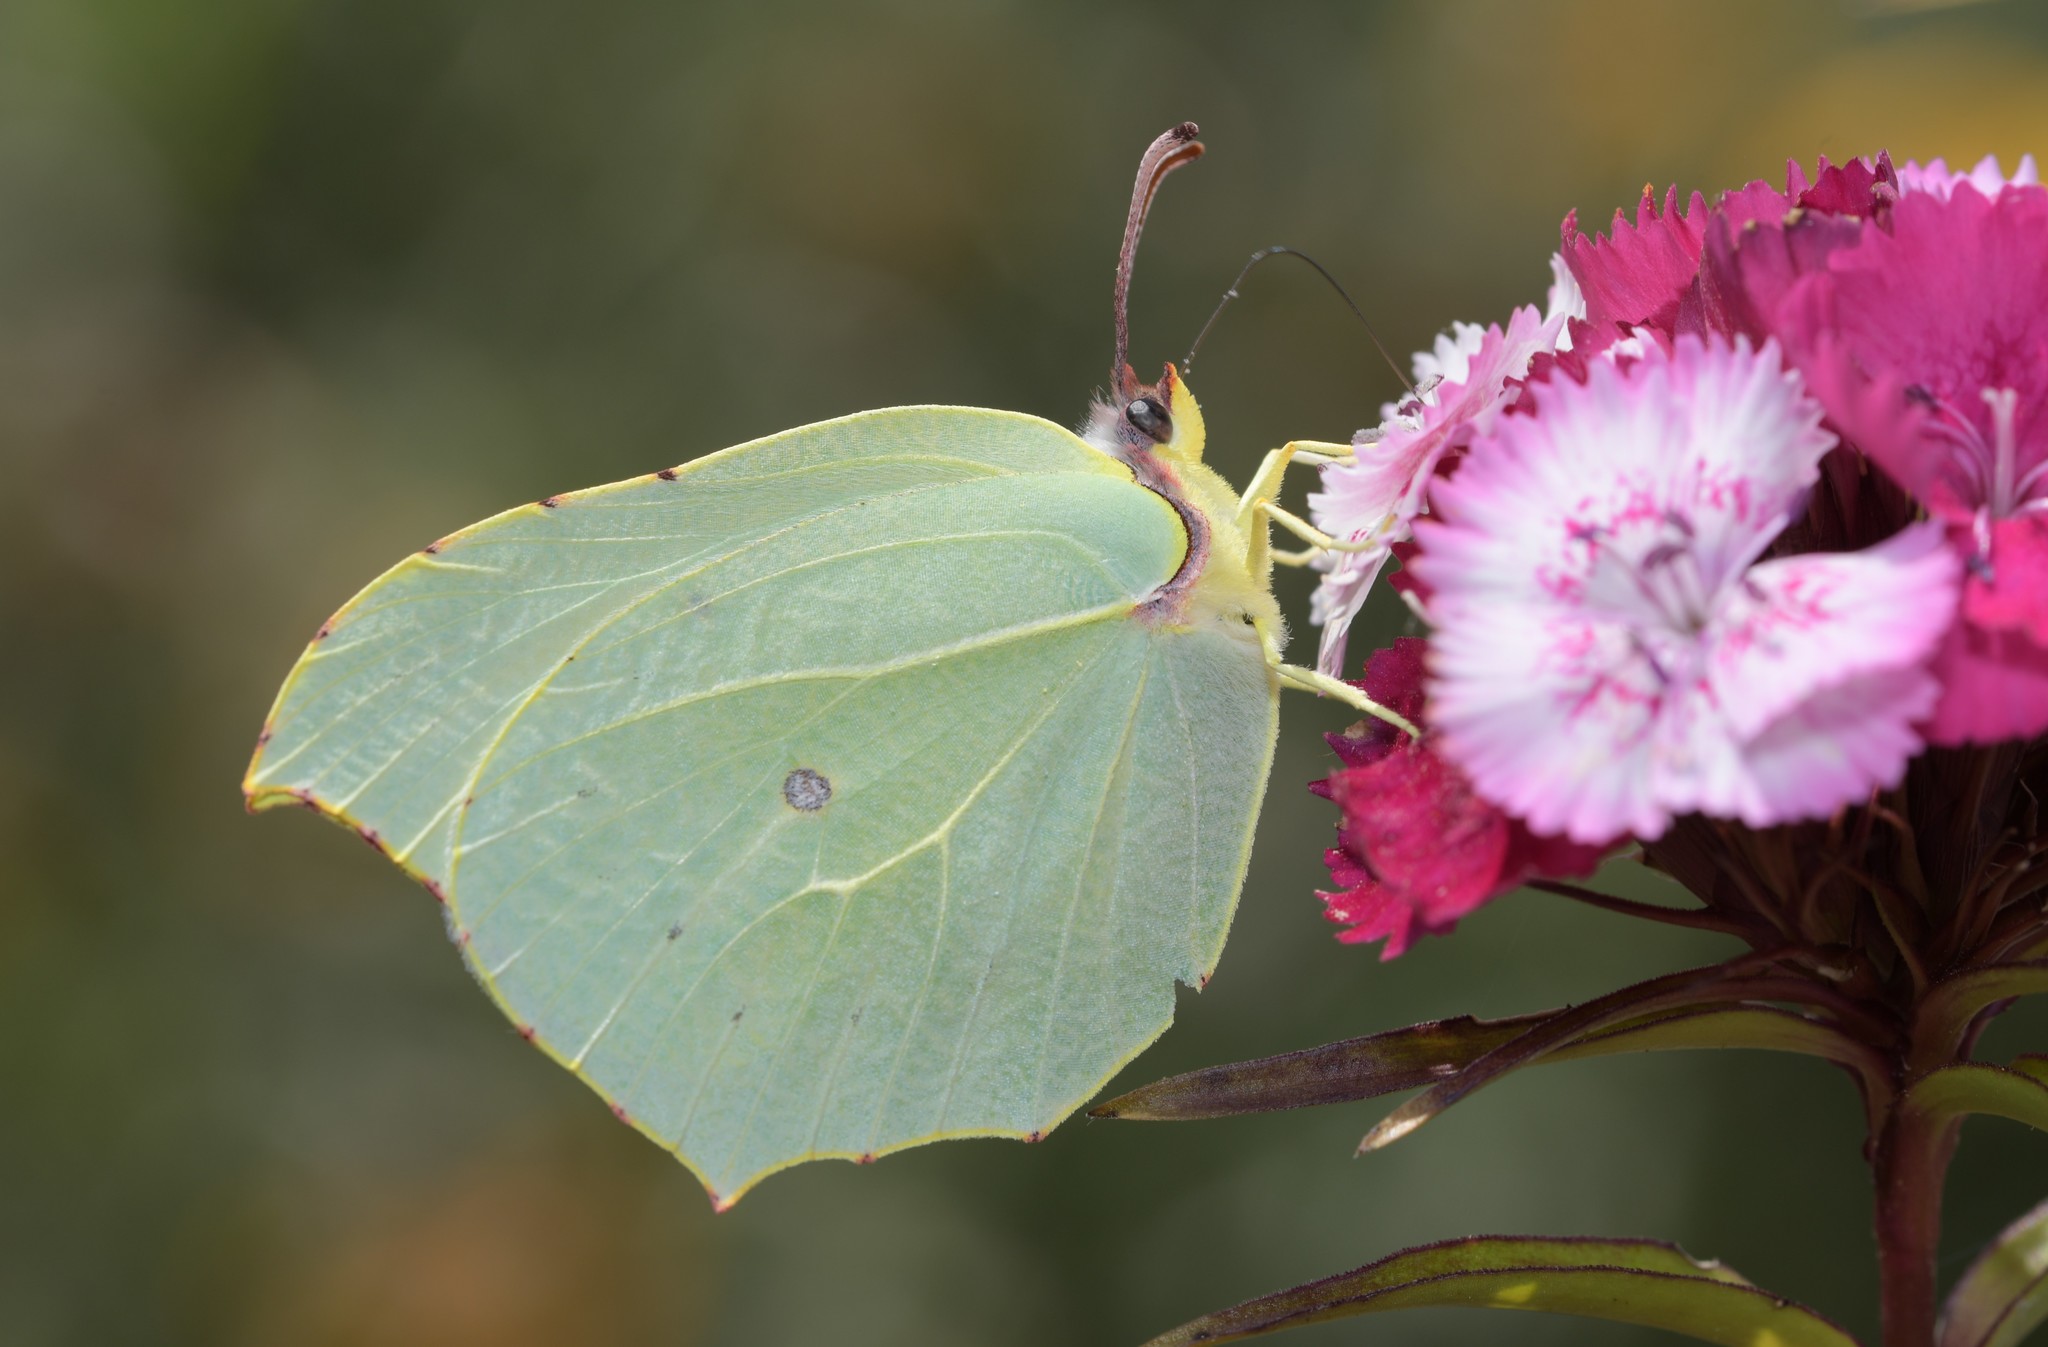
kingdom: Animalia
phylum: Arthropoda
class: Insecta
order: Lepidoptera
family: Pieridae
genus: Gonepteryx
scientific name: Gonepteryx rhamni
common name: Brimstone
